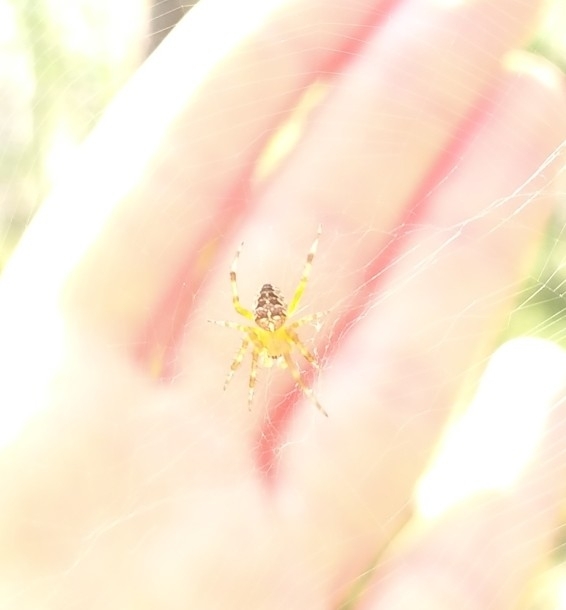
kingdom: Animalia
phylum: Arthropoda
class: Arachnida
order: Araneae
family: Araneidae
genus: Araneus
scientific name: Araneus diadematus
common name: Cross orbweaver
